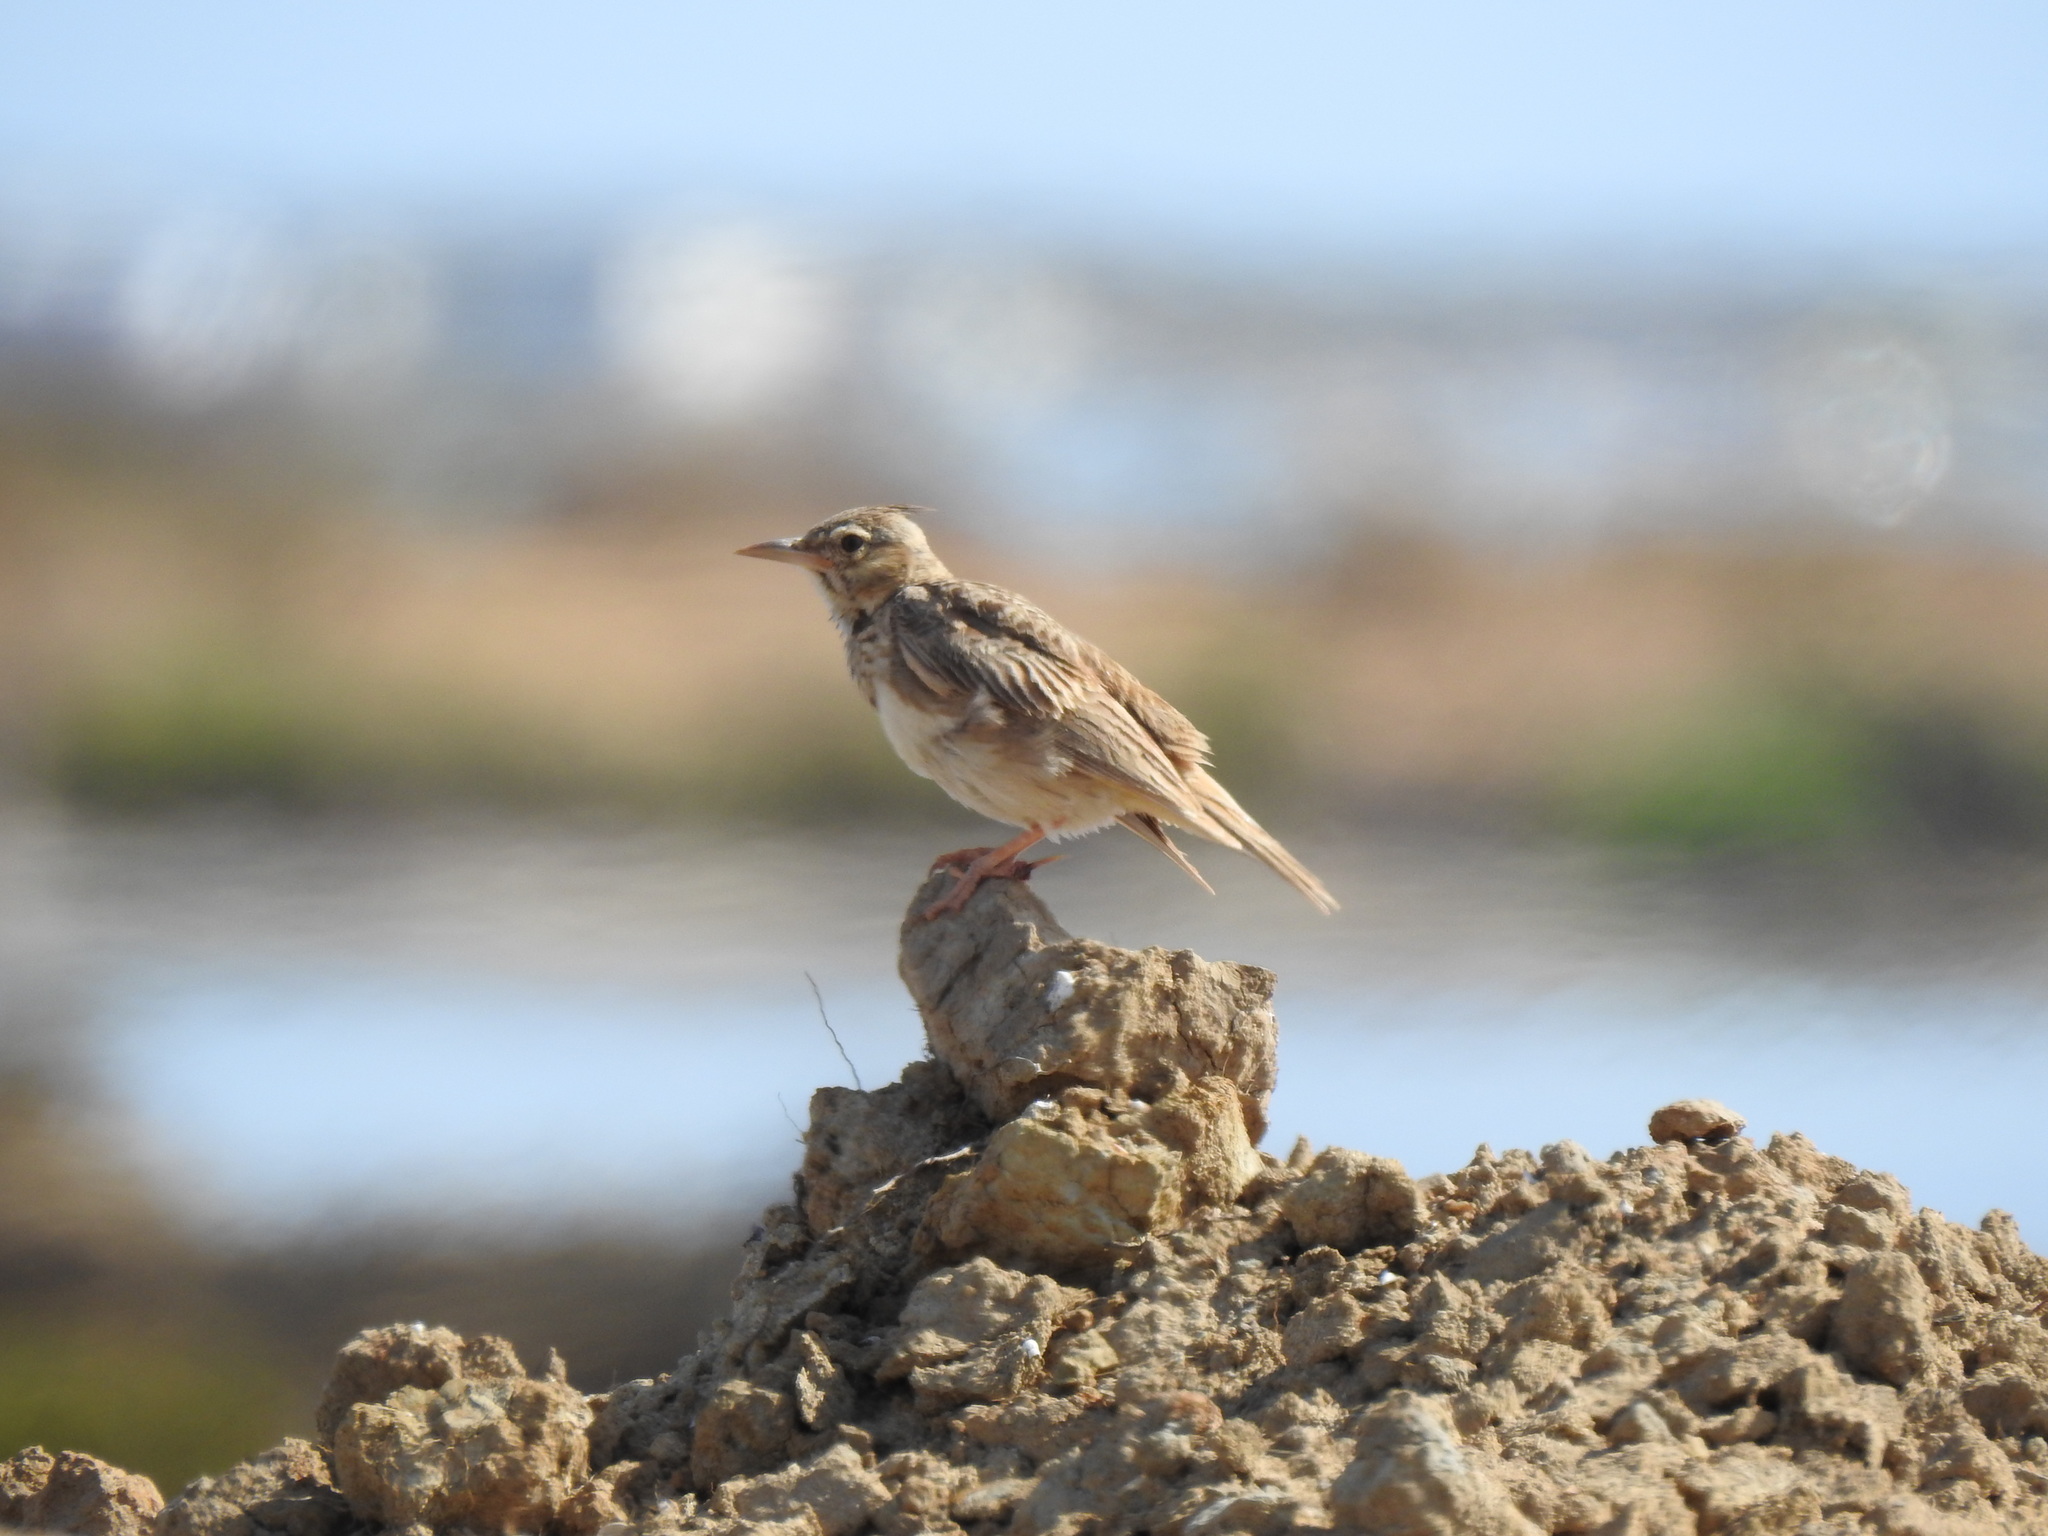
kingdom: Animalia
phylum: Chordata
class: Aves
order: Passeriformes
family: Alaudidae
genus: Galerida
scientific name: Galerida cristata
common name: Crested lark
